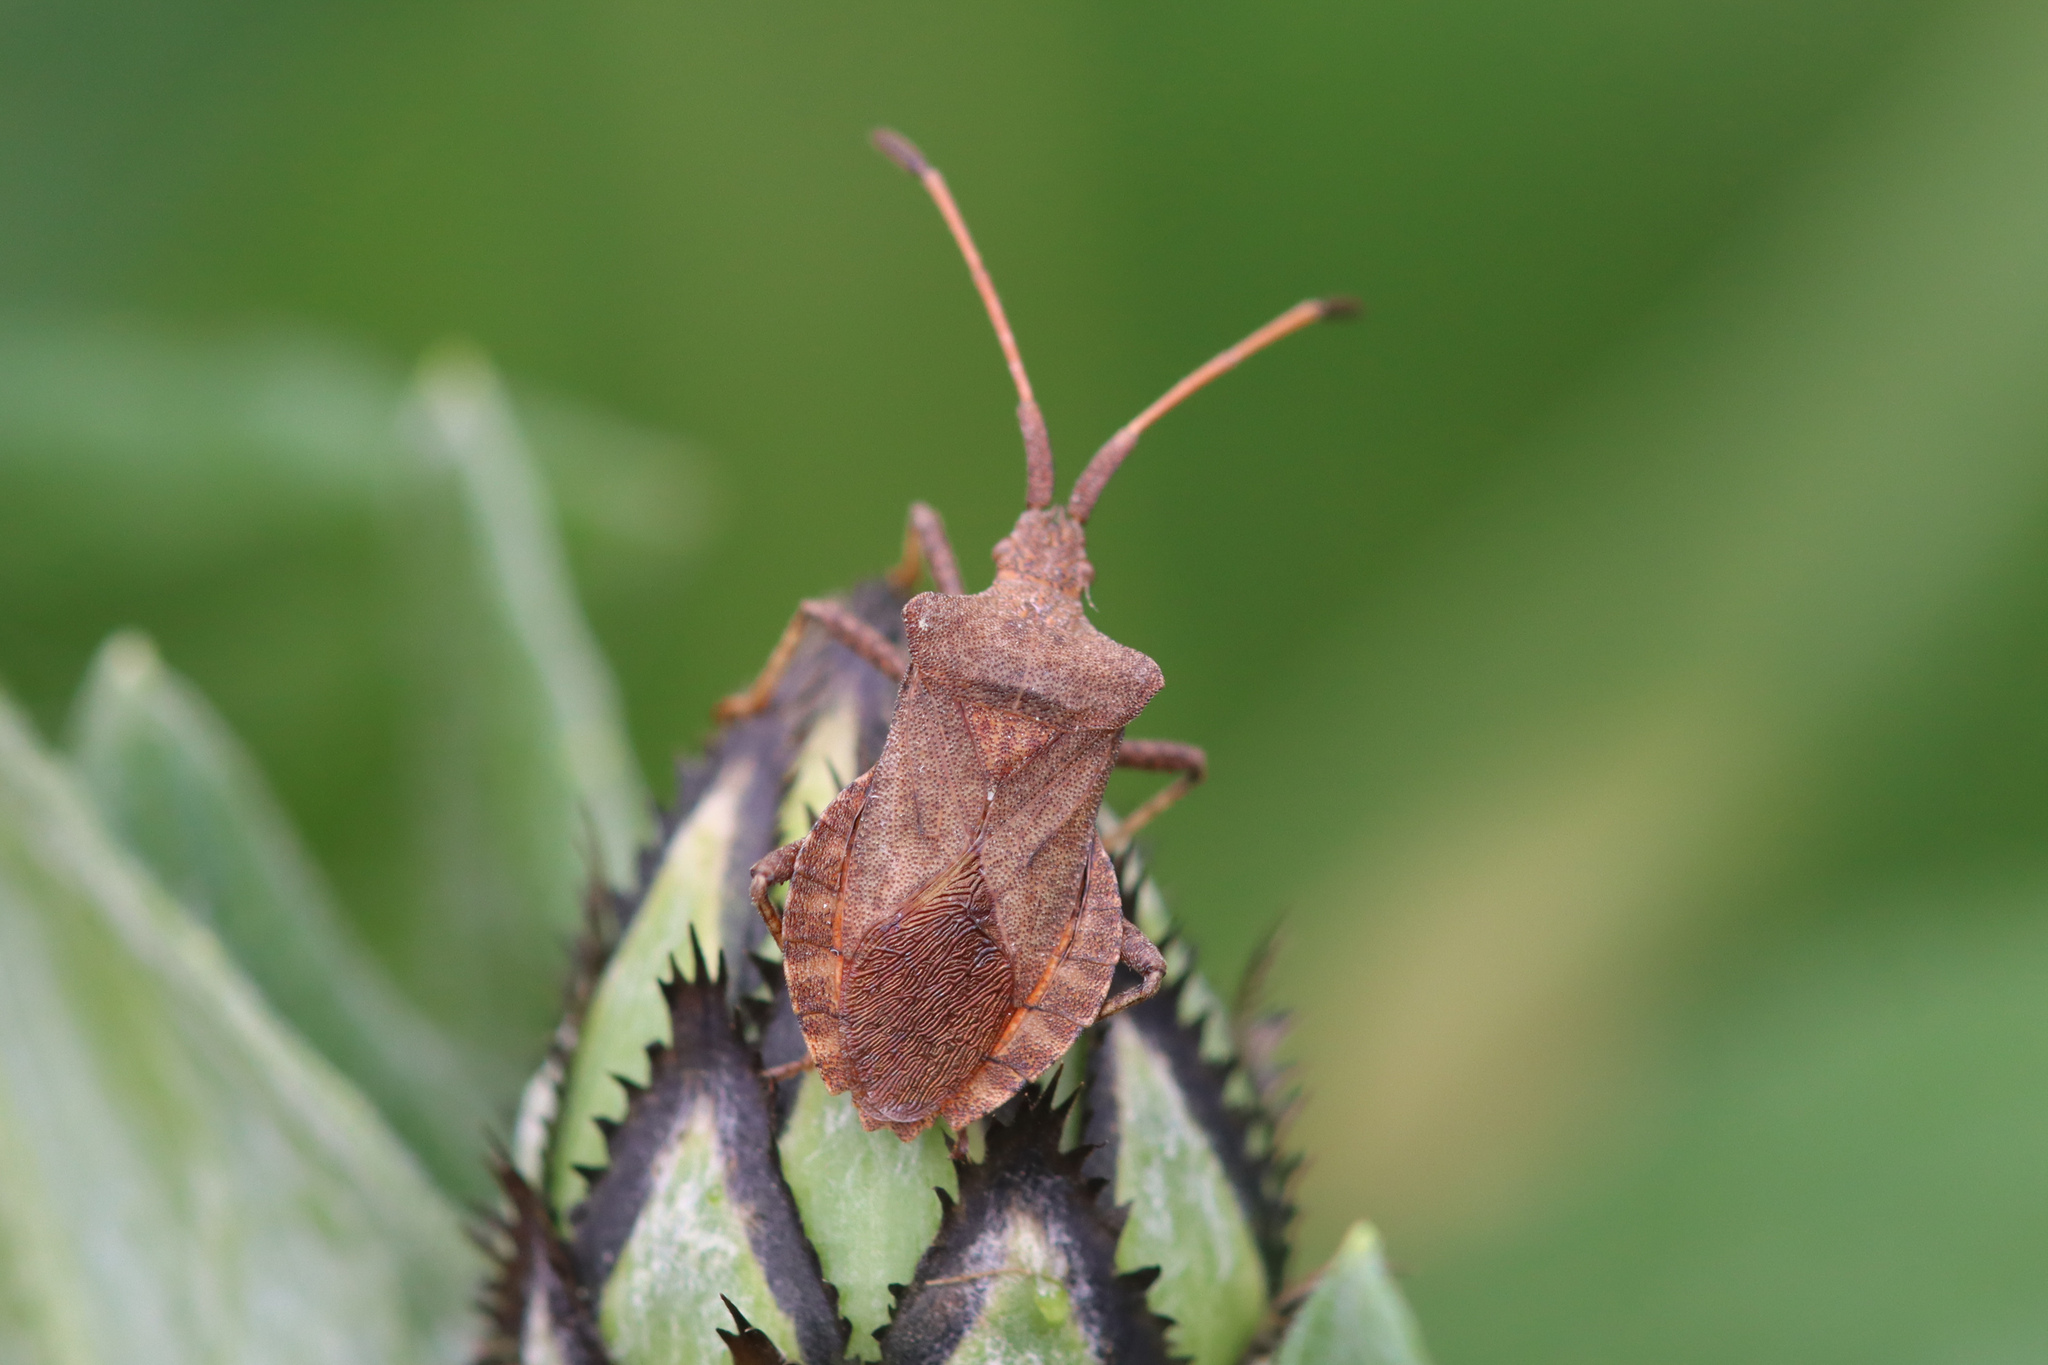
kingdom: Animalia
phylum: Arthropoda
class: Insecta
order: Hemiptera
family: Coreidae
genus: Coreus
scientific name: Coreus marginatus
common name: Dock bug
